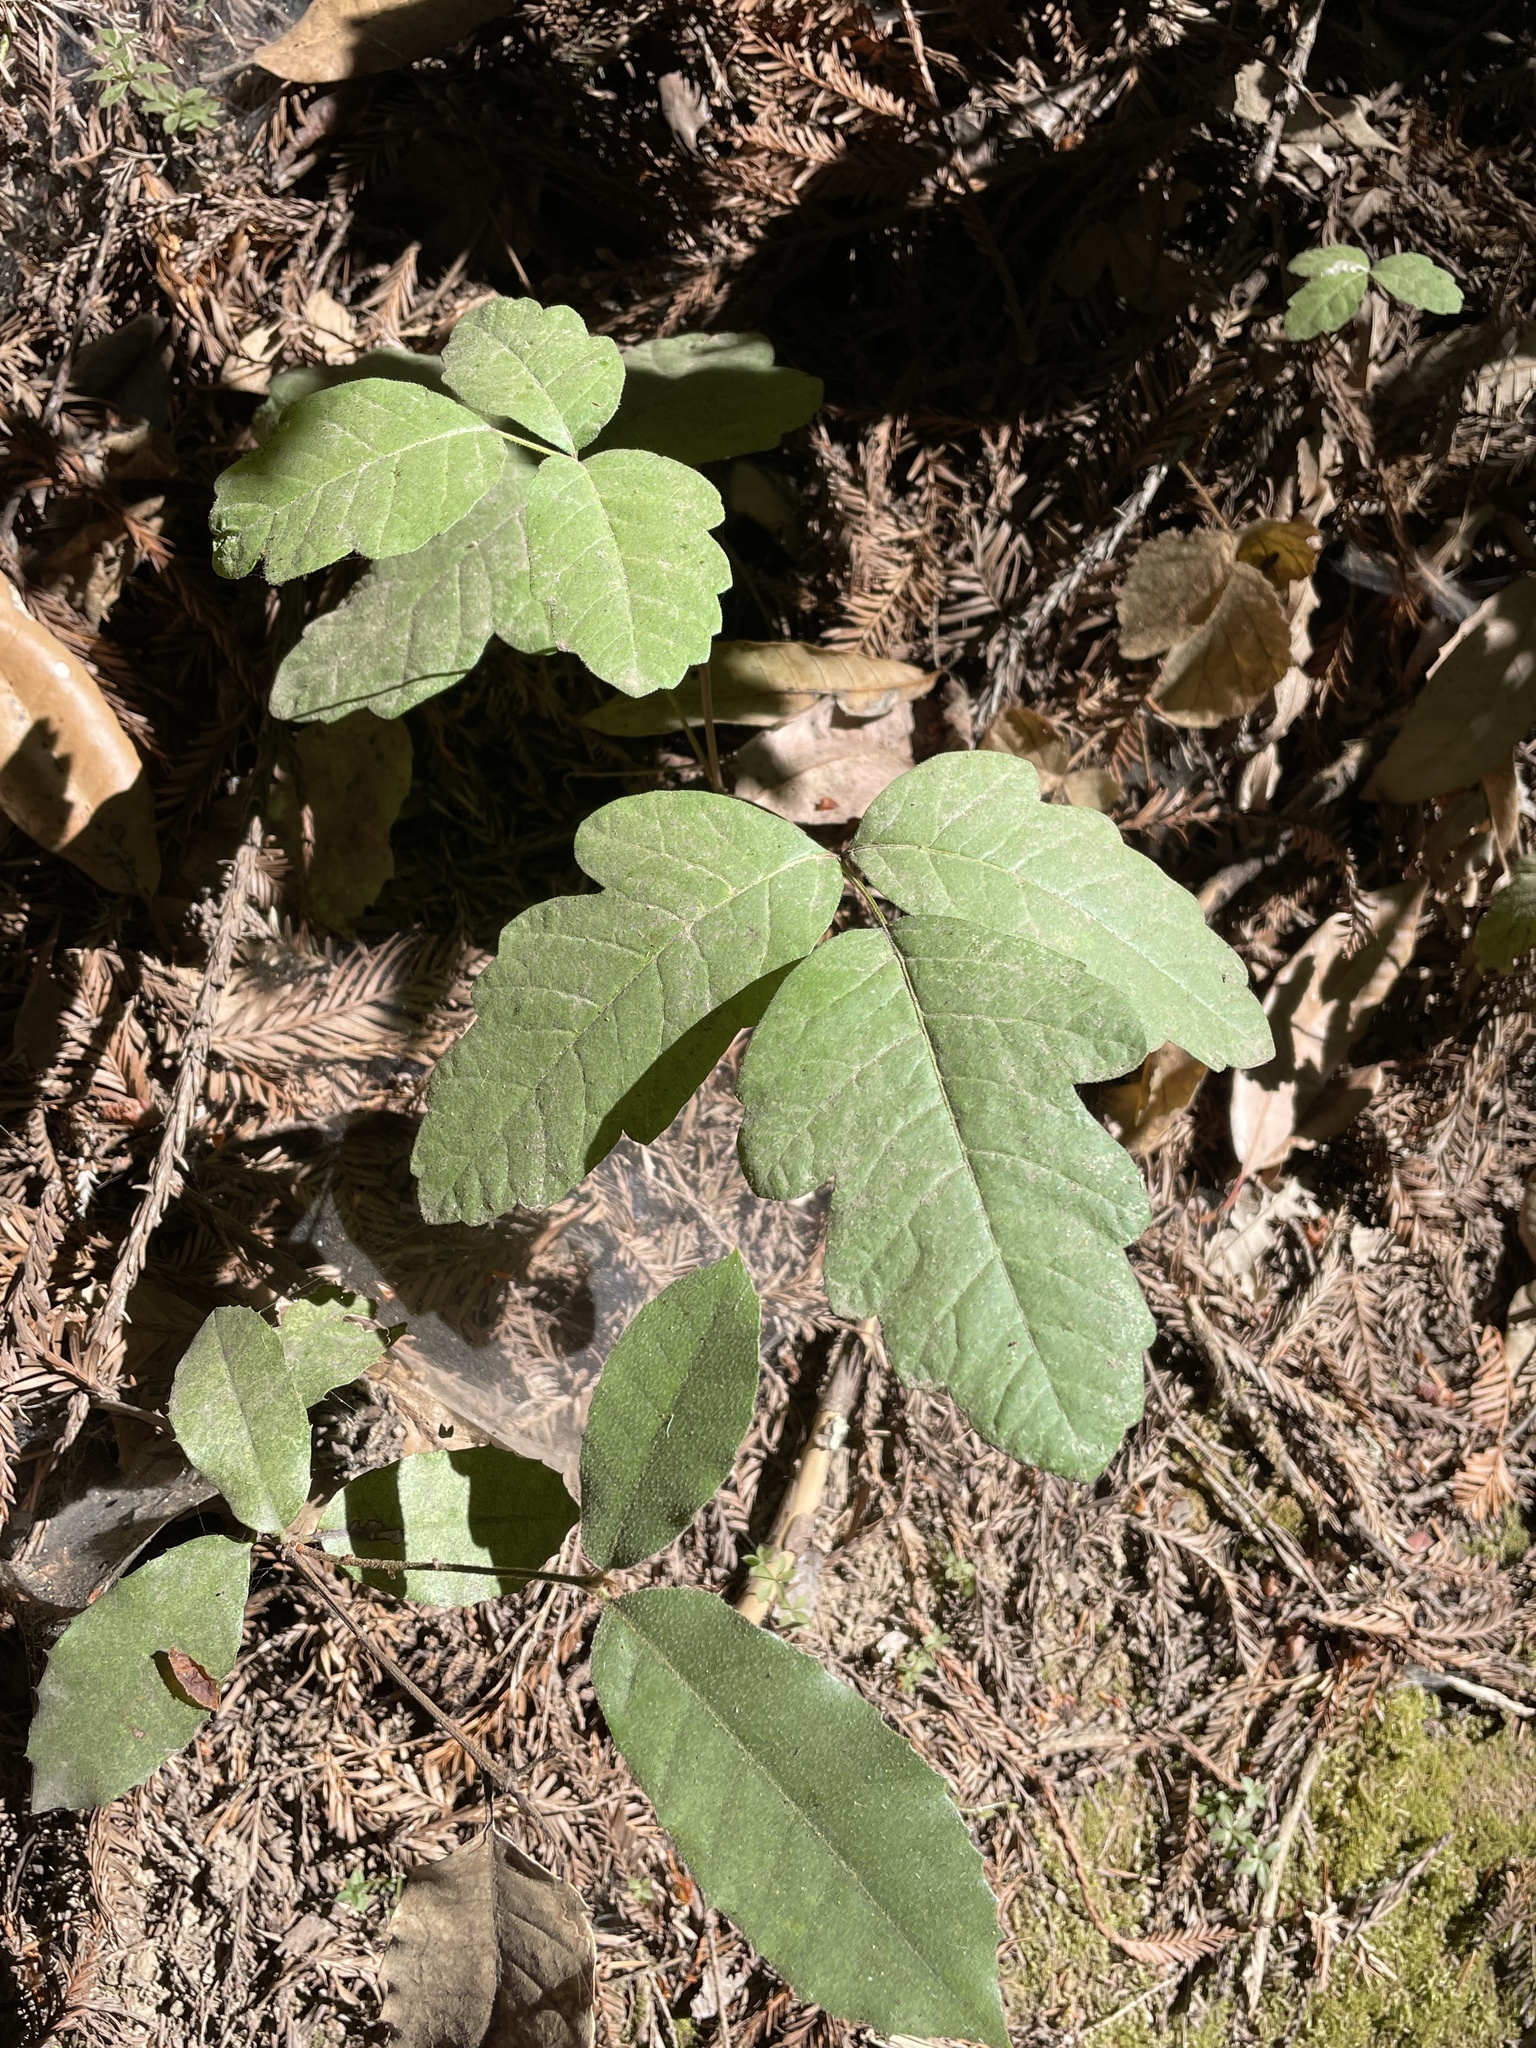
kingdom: Plantae
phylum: Tracheophyta
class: Magnoliopsida
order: Sapindales
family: Anacardiaceae
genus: Toxicodendron
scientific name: Toxicodendron diversilobum
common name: Pacific poison-oak
